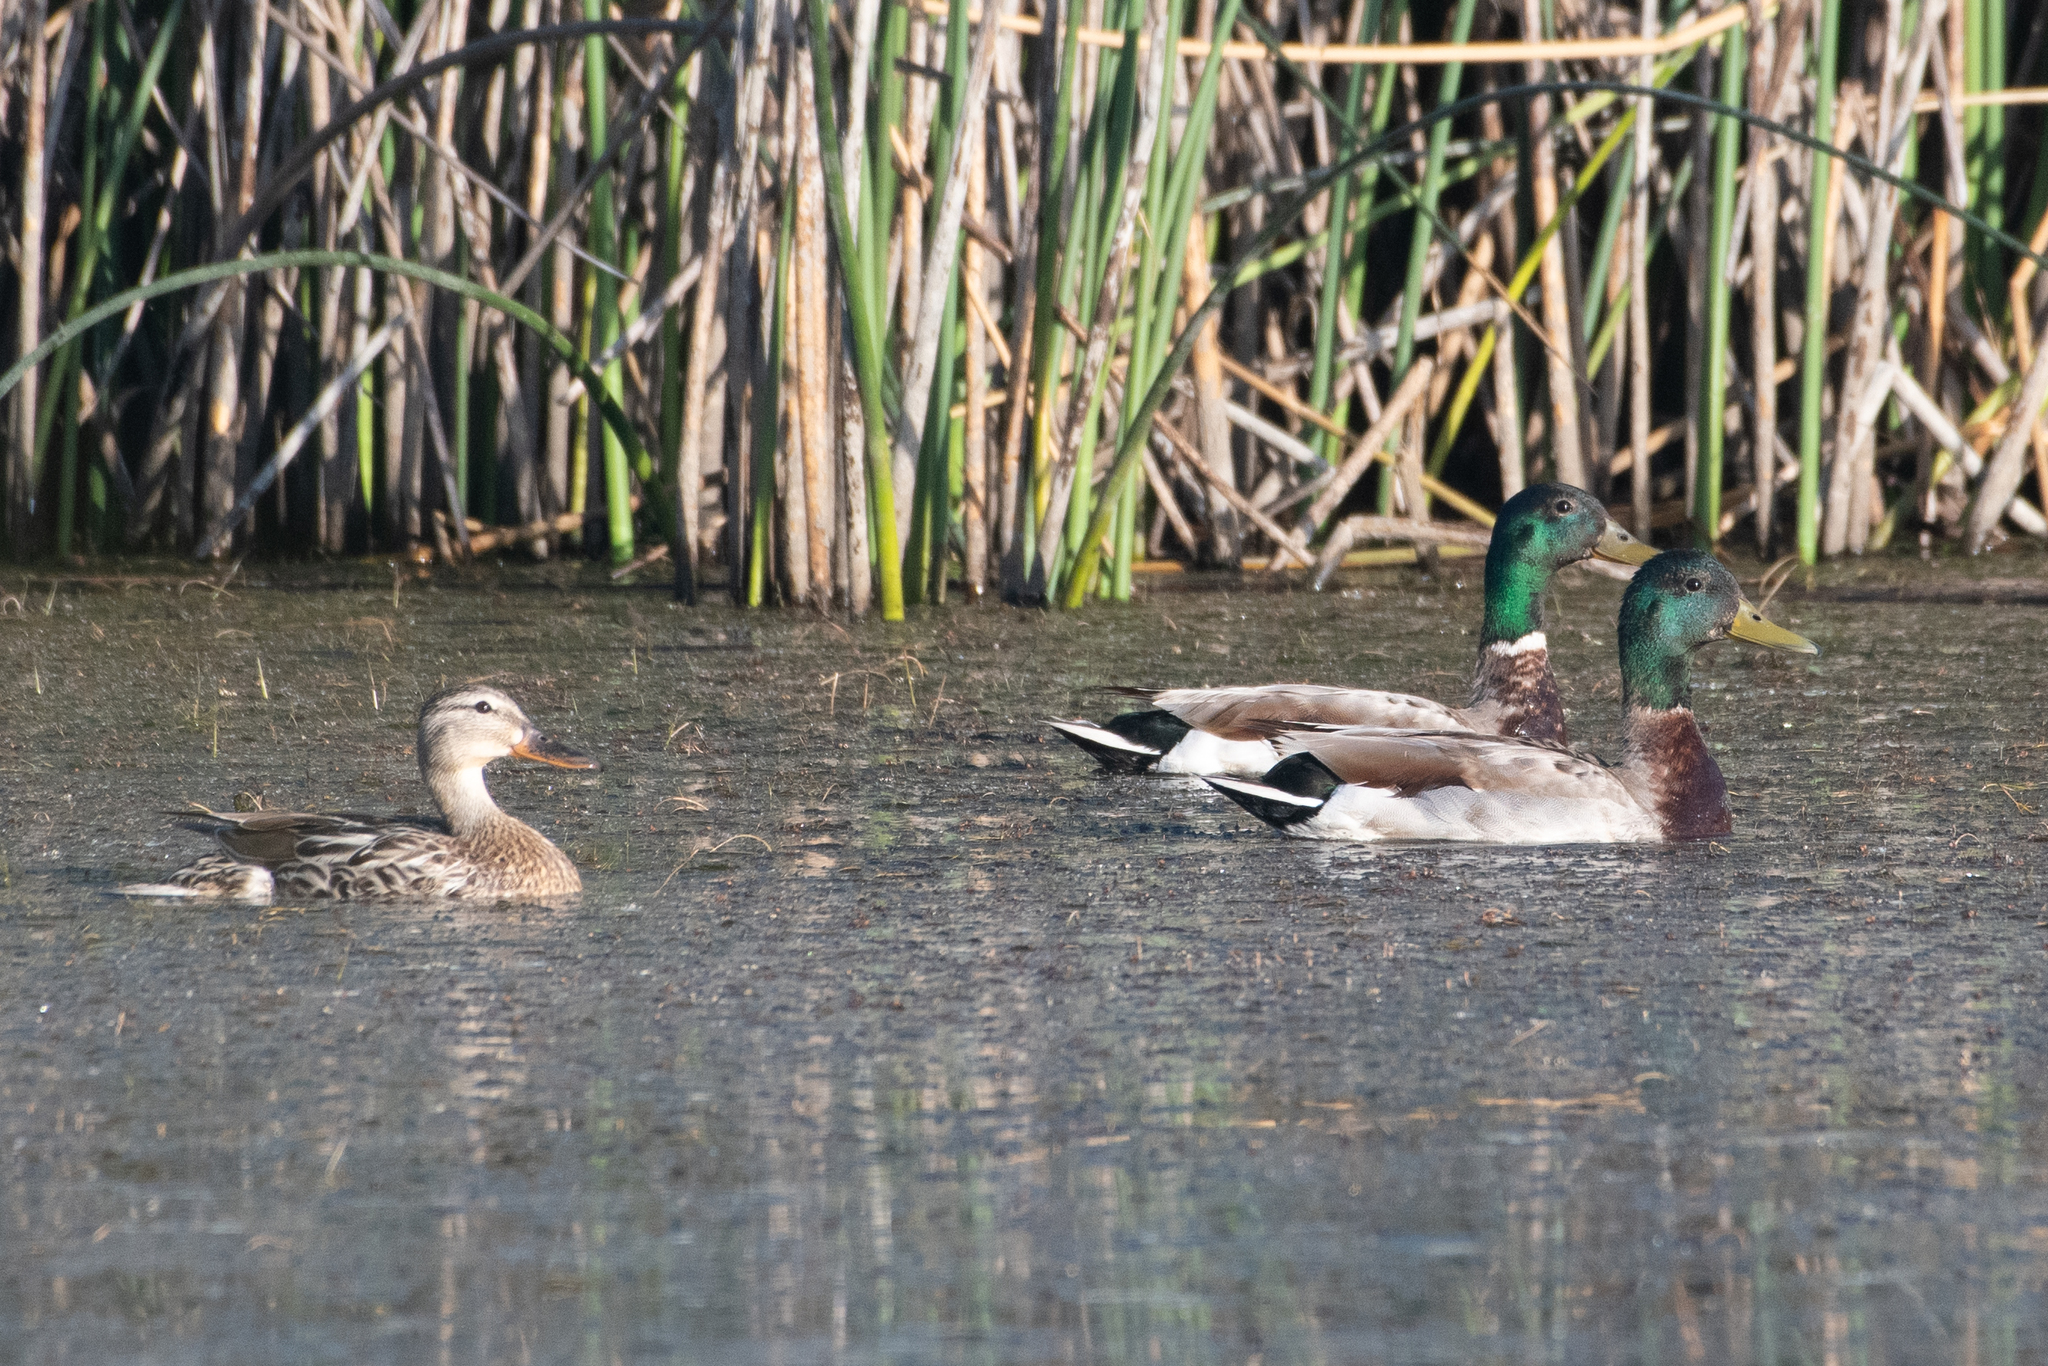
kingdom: Animalia
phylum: Chordata
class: Aves
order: Anseriformes
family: Anatidae
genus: Anas
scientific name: Anas platyrhynchos
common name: Mallard
